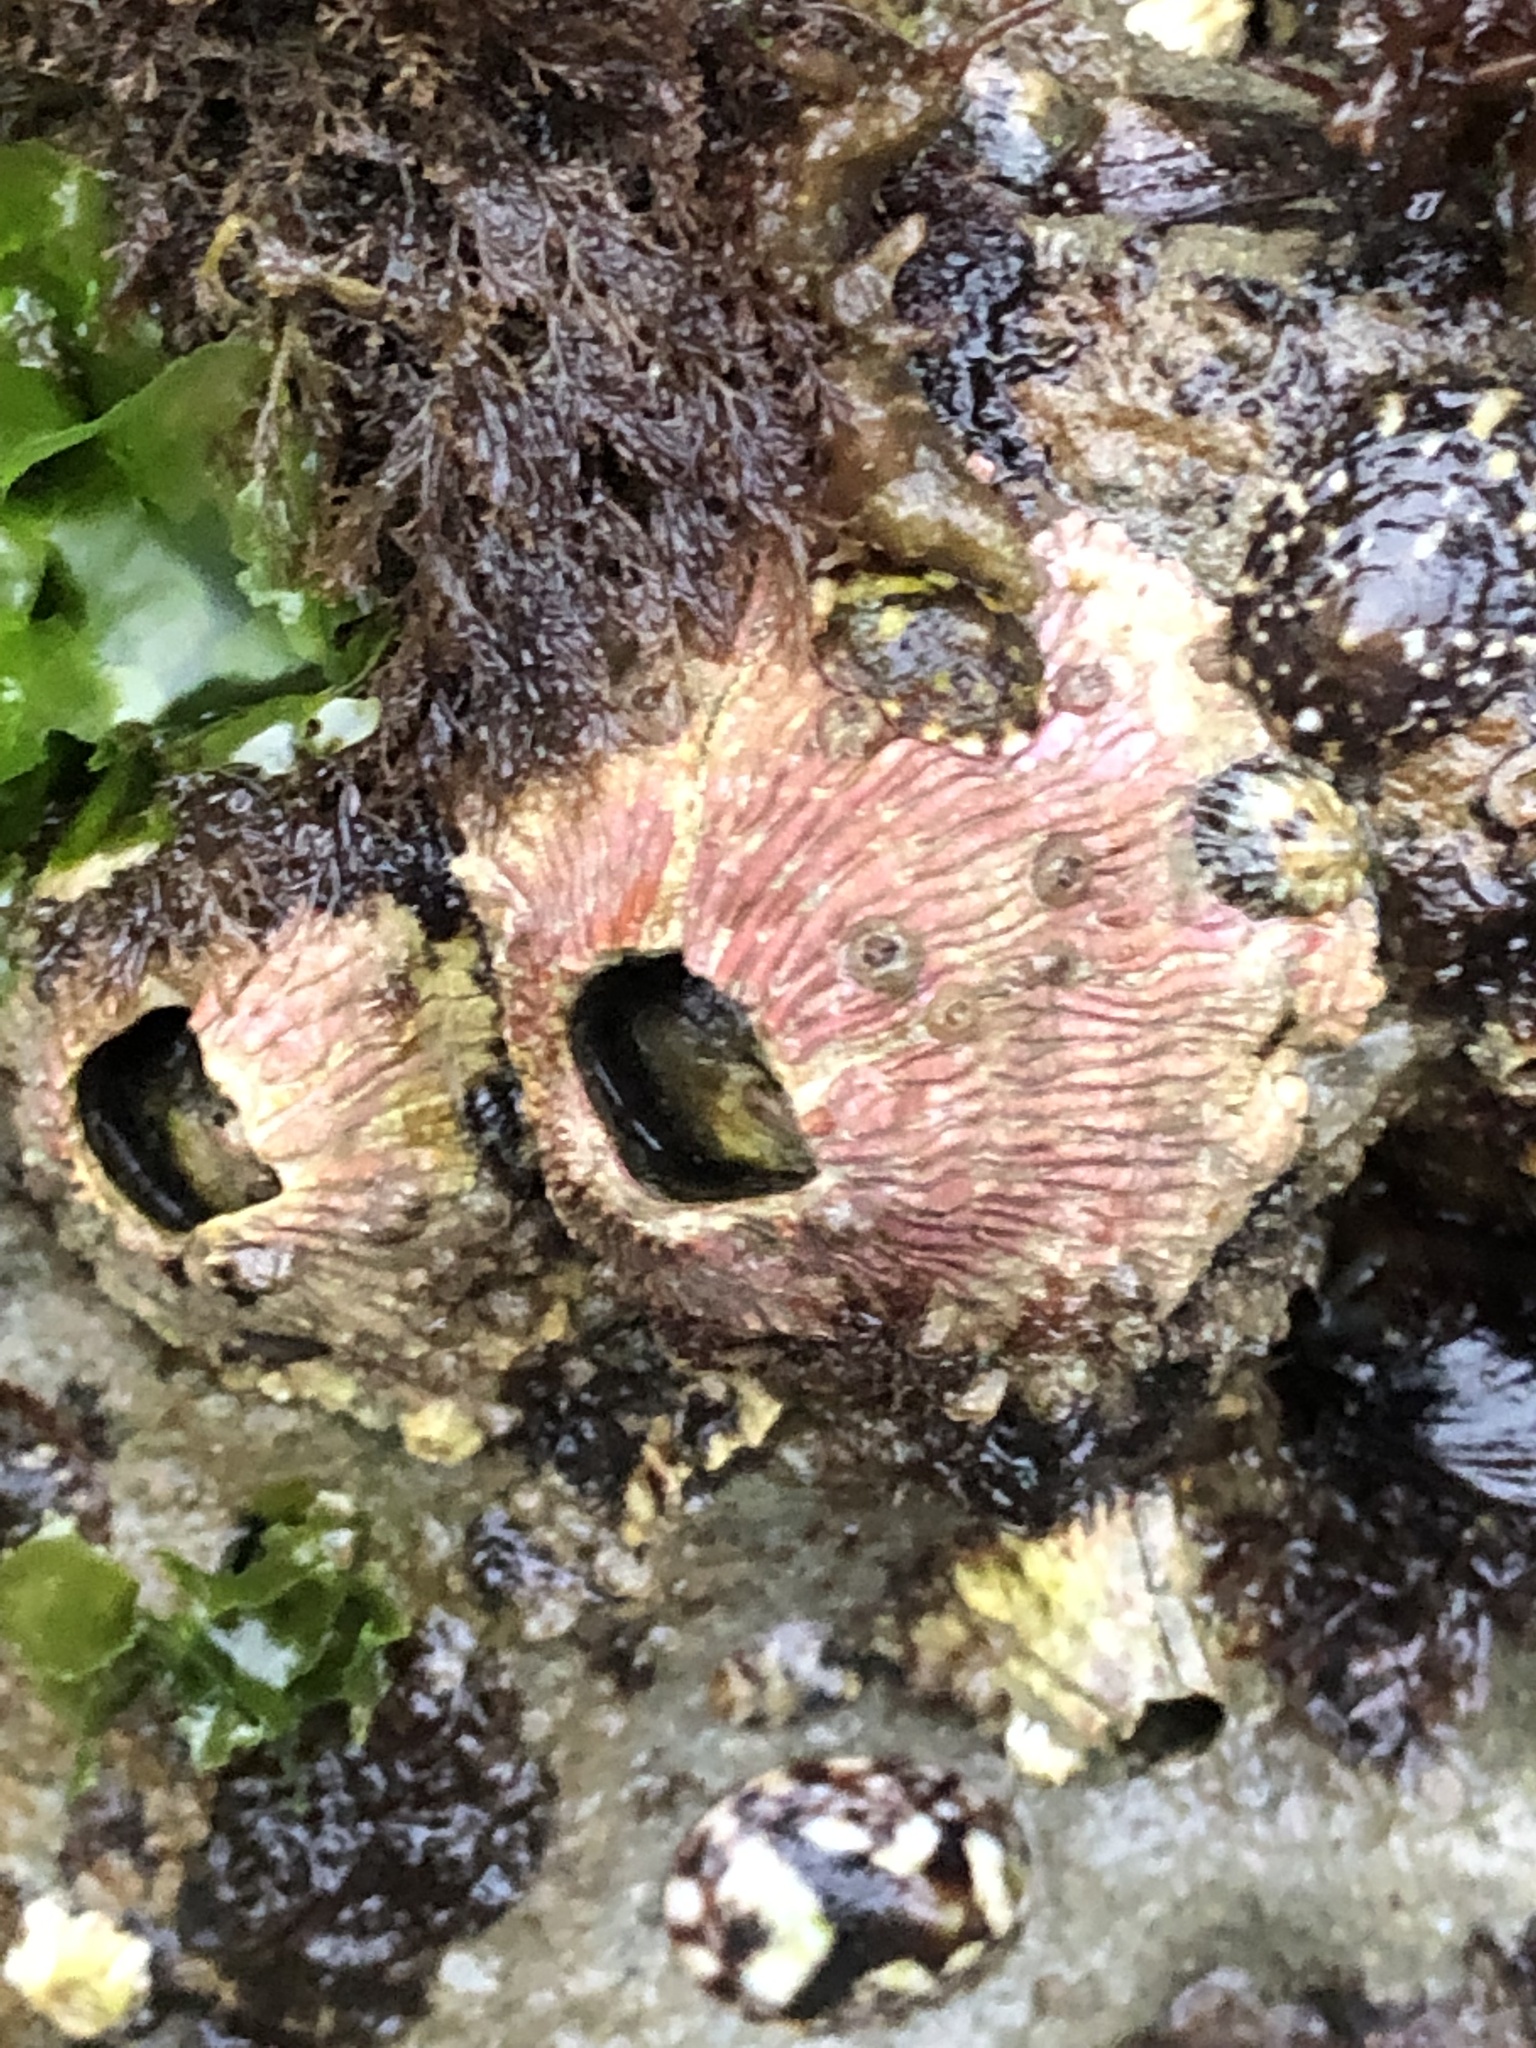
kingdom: Animalia
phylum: Arthropoda
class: Maxillopoda
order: Sessilia
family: Tetraclitidae
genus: Tetraclita
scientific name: Tetraclita rubescens
